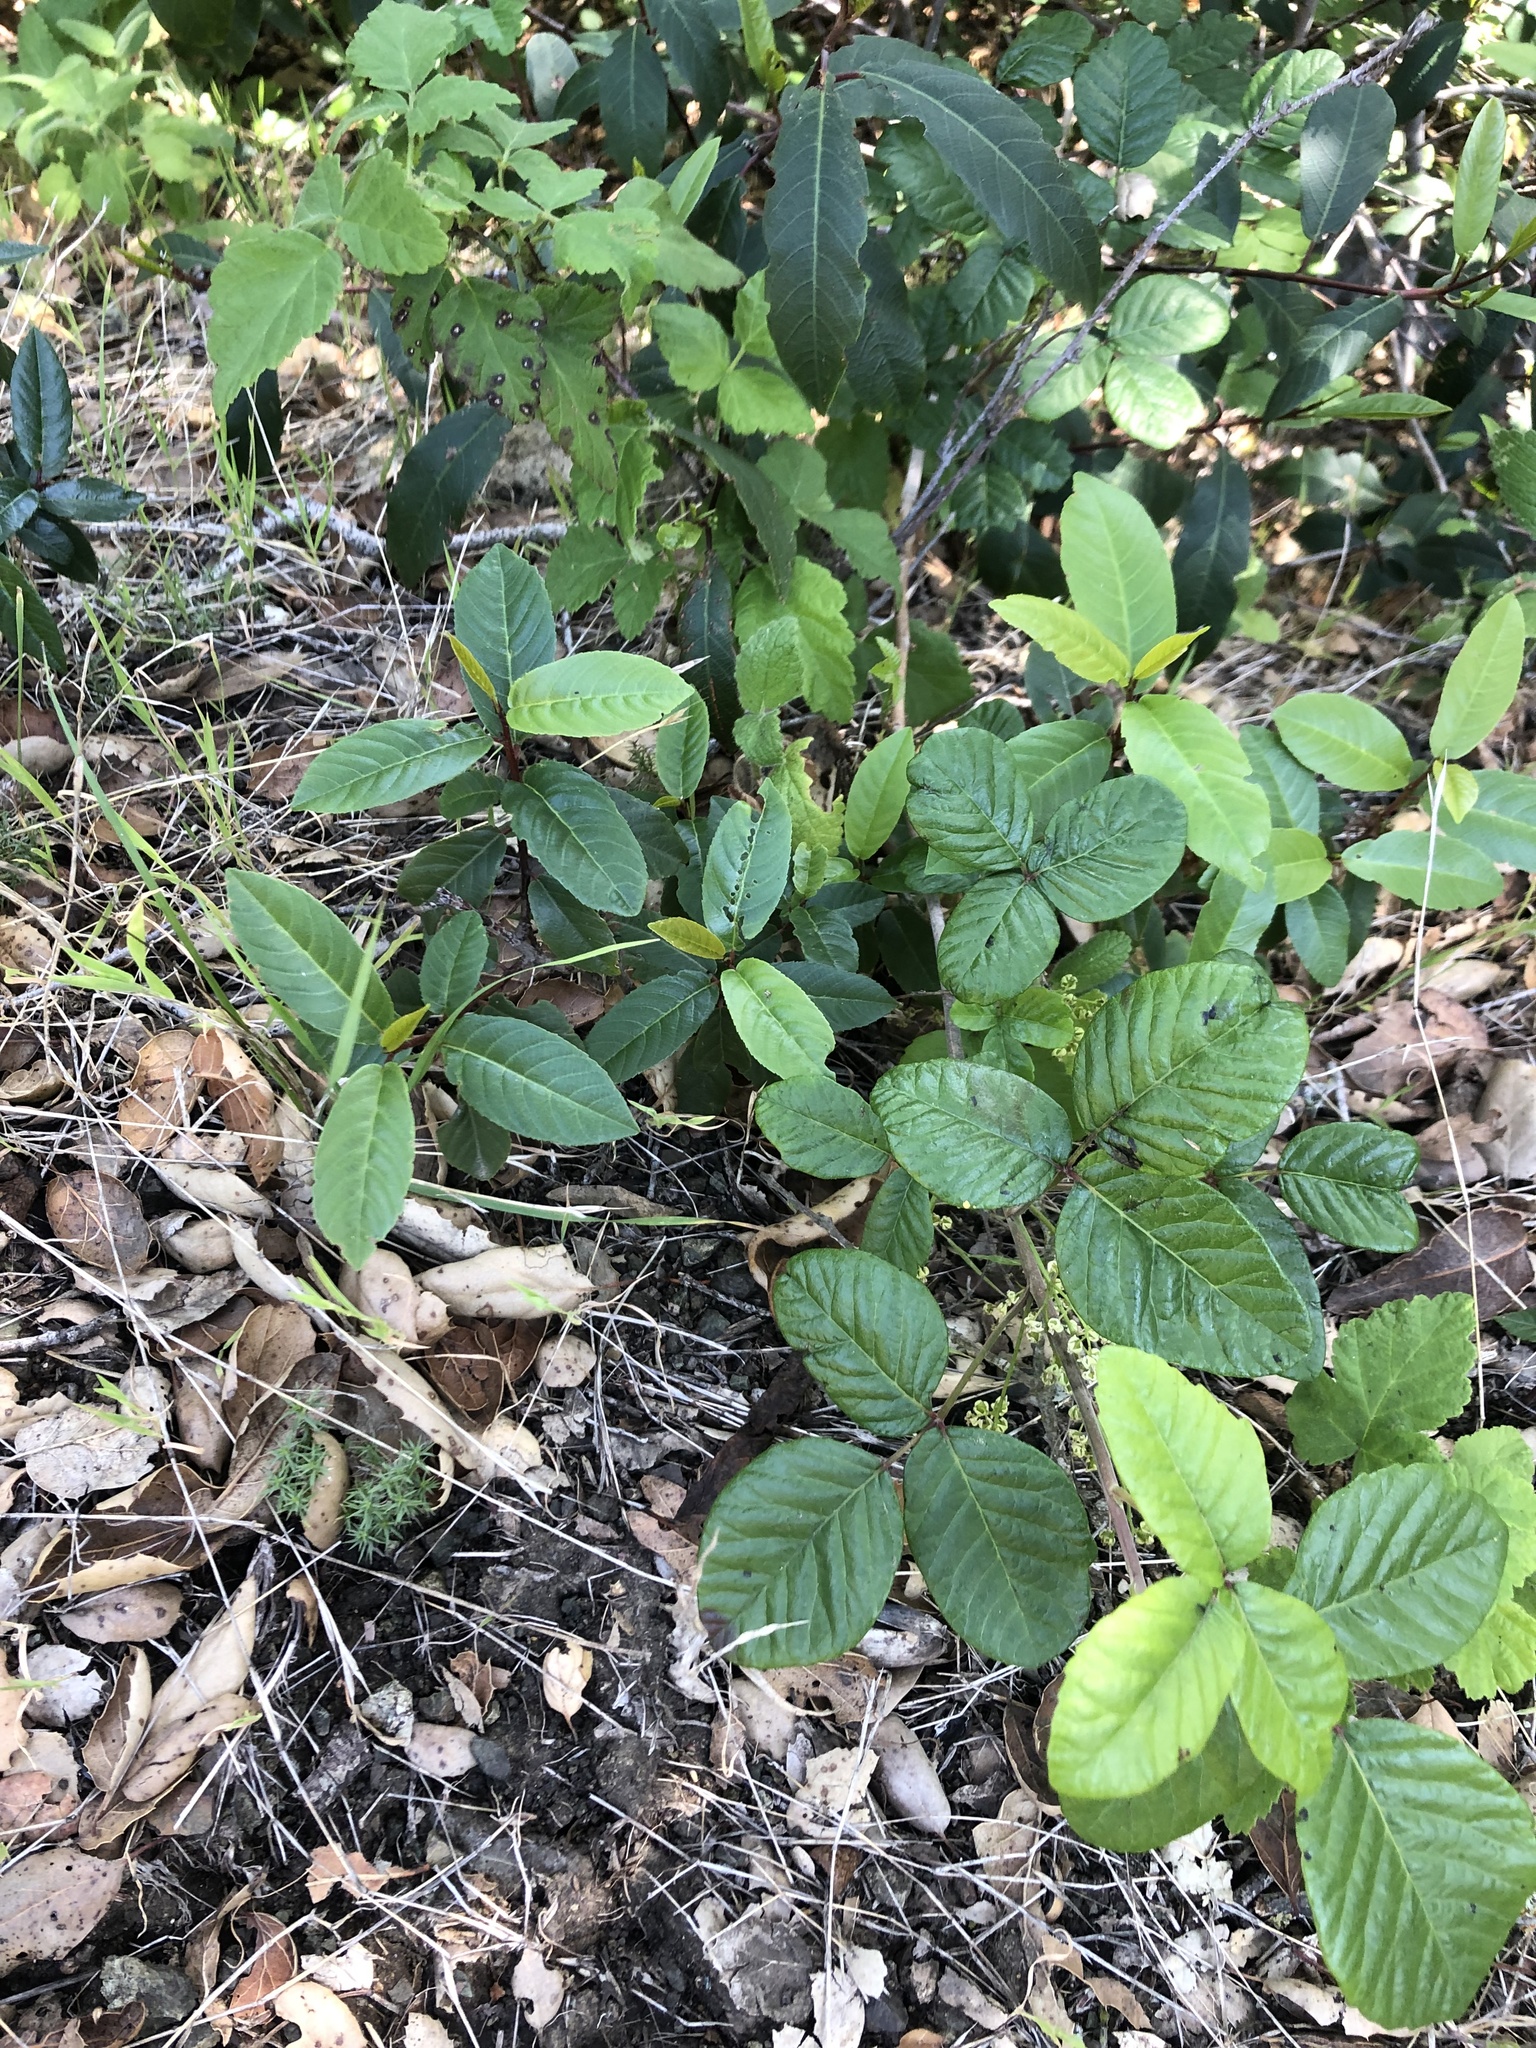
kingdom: Plantae
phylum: Tracheophyta
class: Magnoliopsida
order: Sapindales
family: Anacardiaceae
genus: Toxicodendron
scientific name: Toxicodendron diversilobum
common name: Pacific poison-oak
